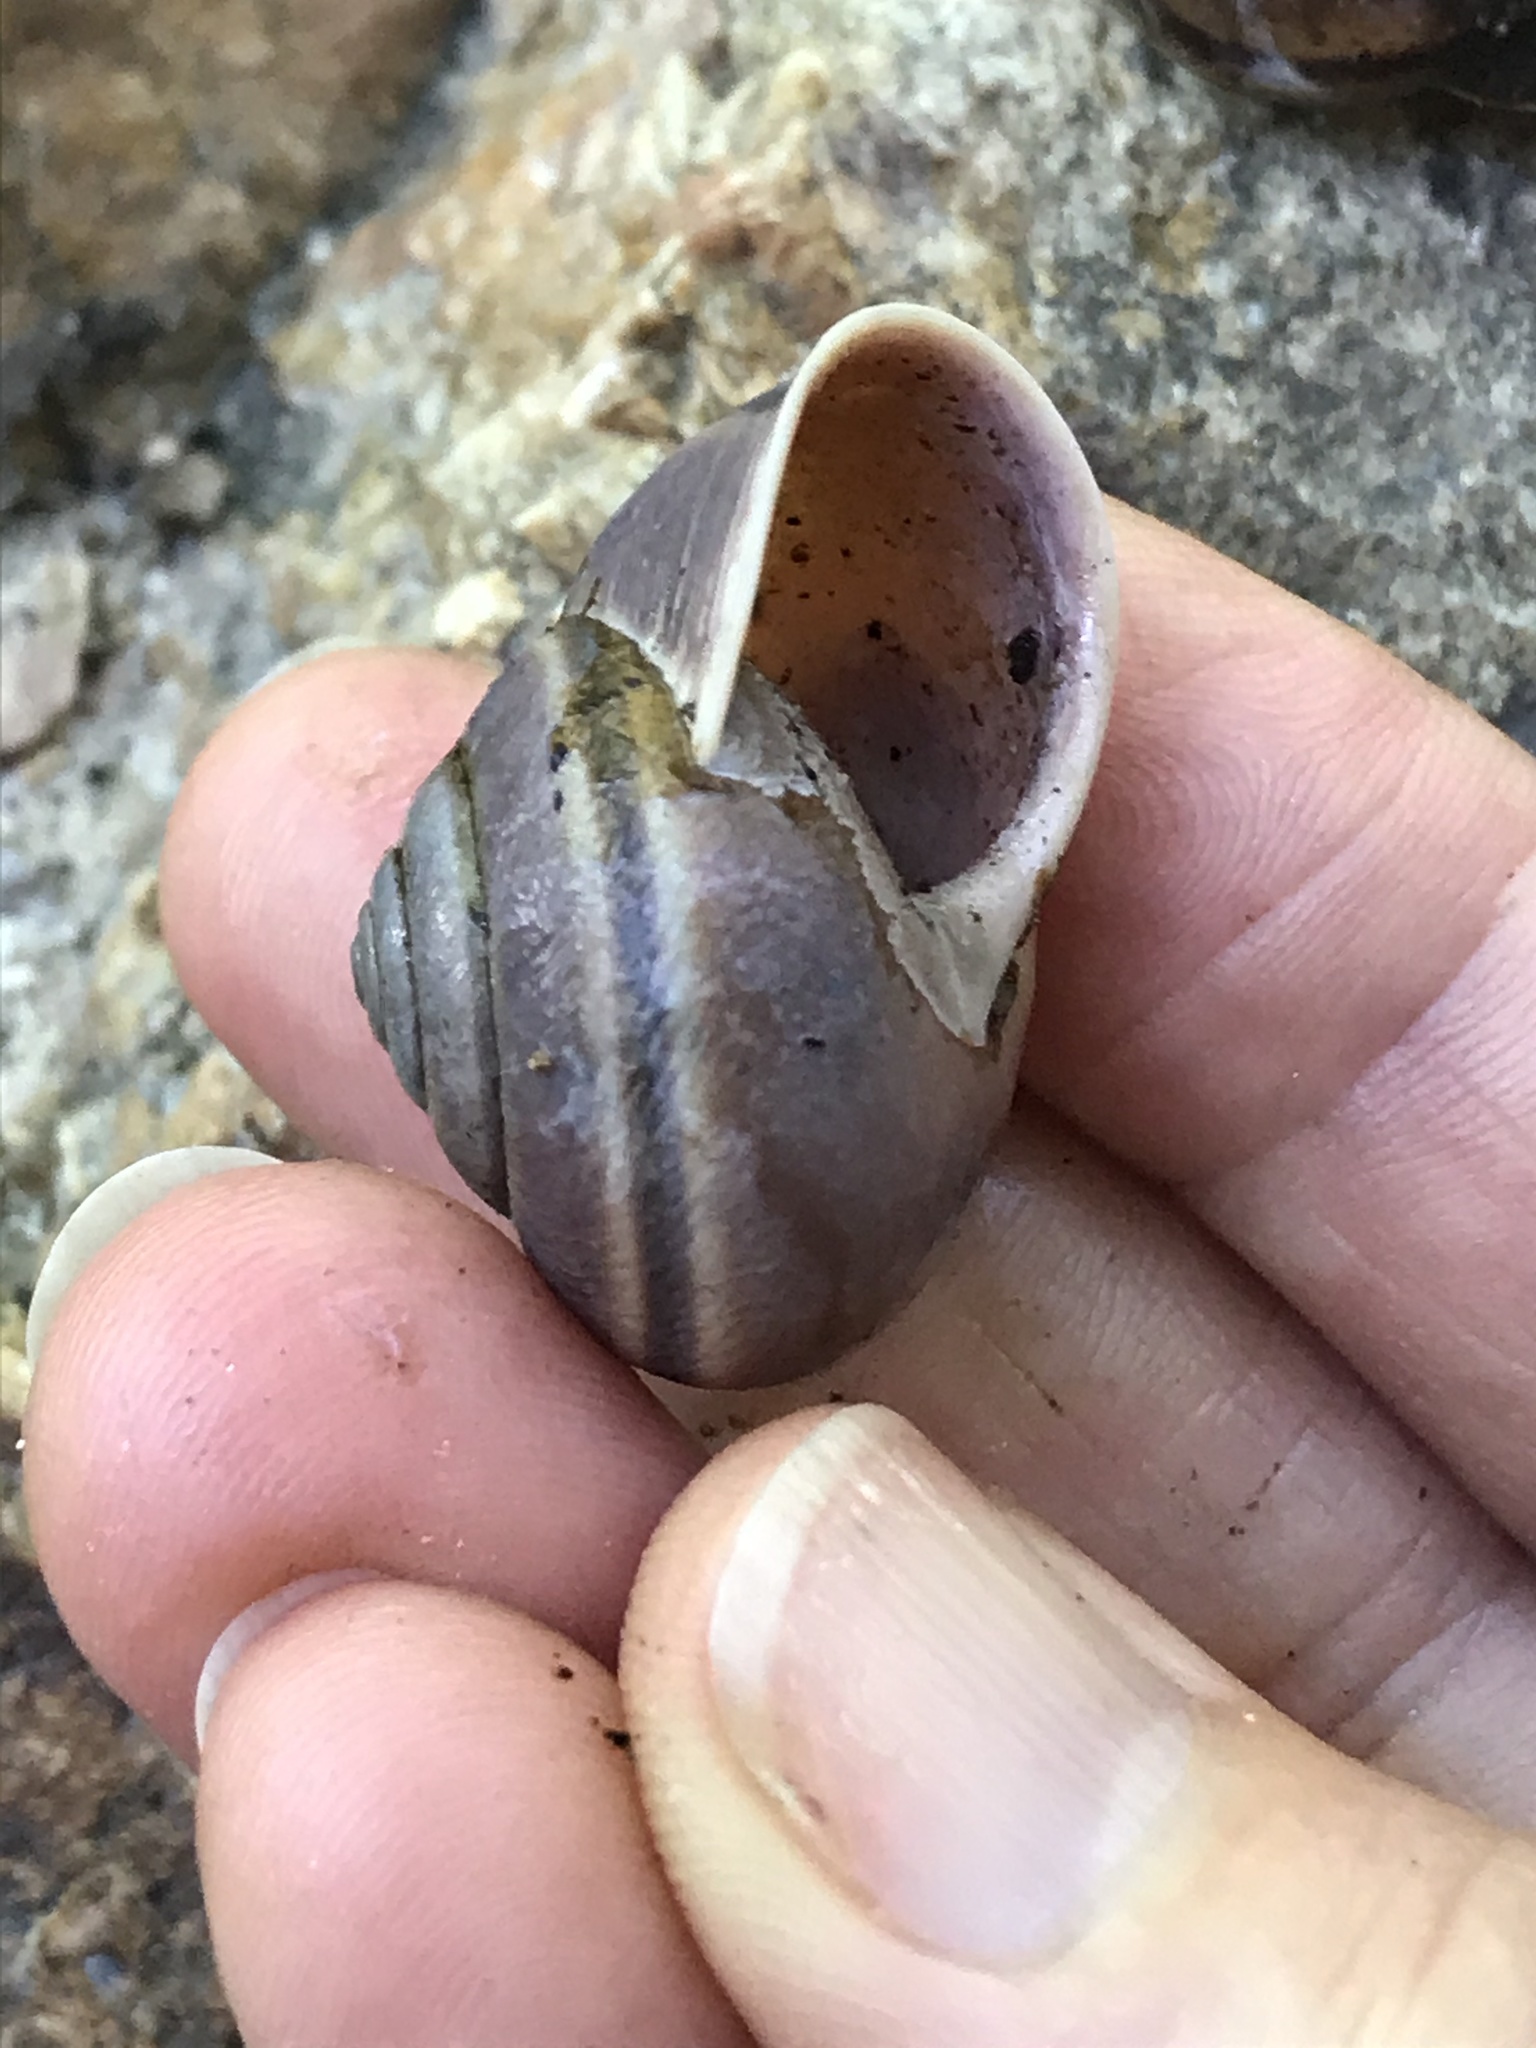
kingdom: Animalia
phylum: Mollusca
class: Gastropoda
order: Stylommatophora
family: Xanthonychidae
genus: Helminthoglypta
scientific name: Helminthoglypta tudiculata
